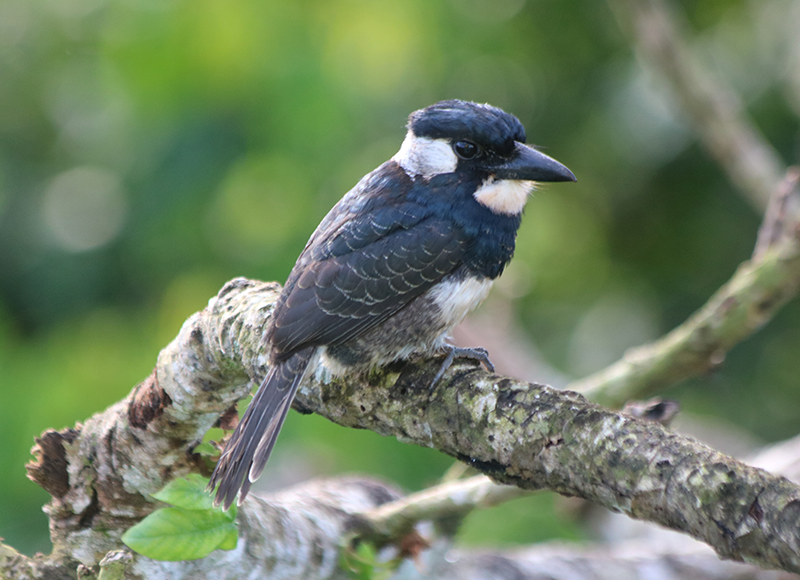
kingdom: Animalia
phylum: Chordata
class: Aves
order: Piciformes
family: Bucconidae
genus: Notharchus
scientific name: Notharchus pectoralis
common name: Black-breasted puffbird
